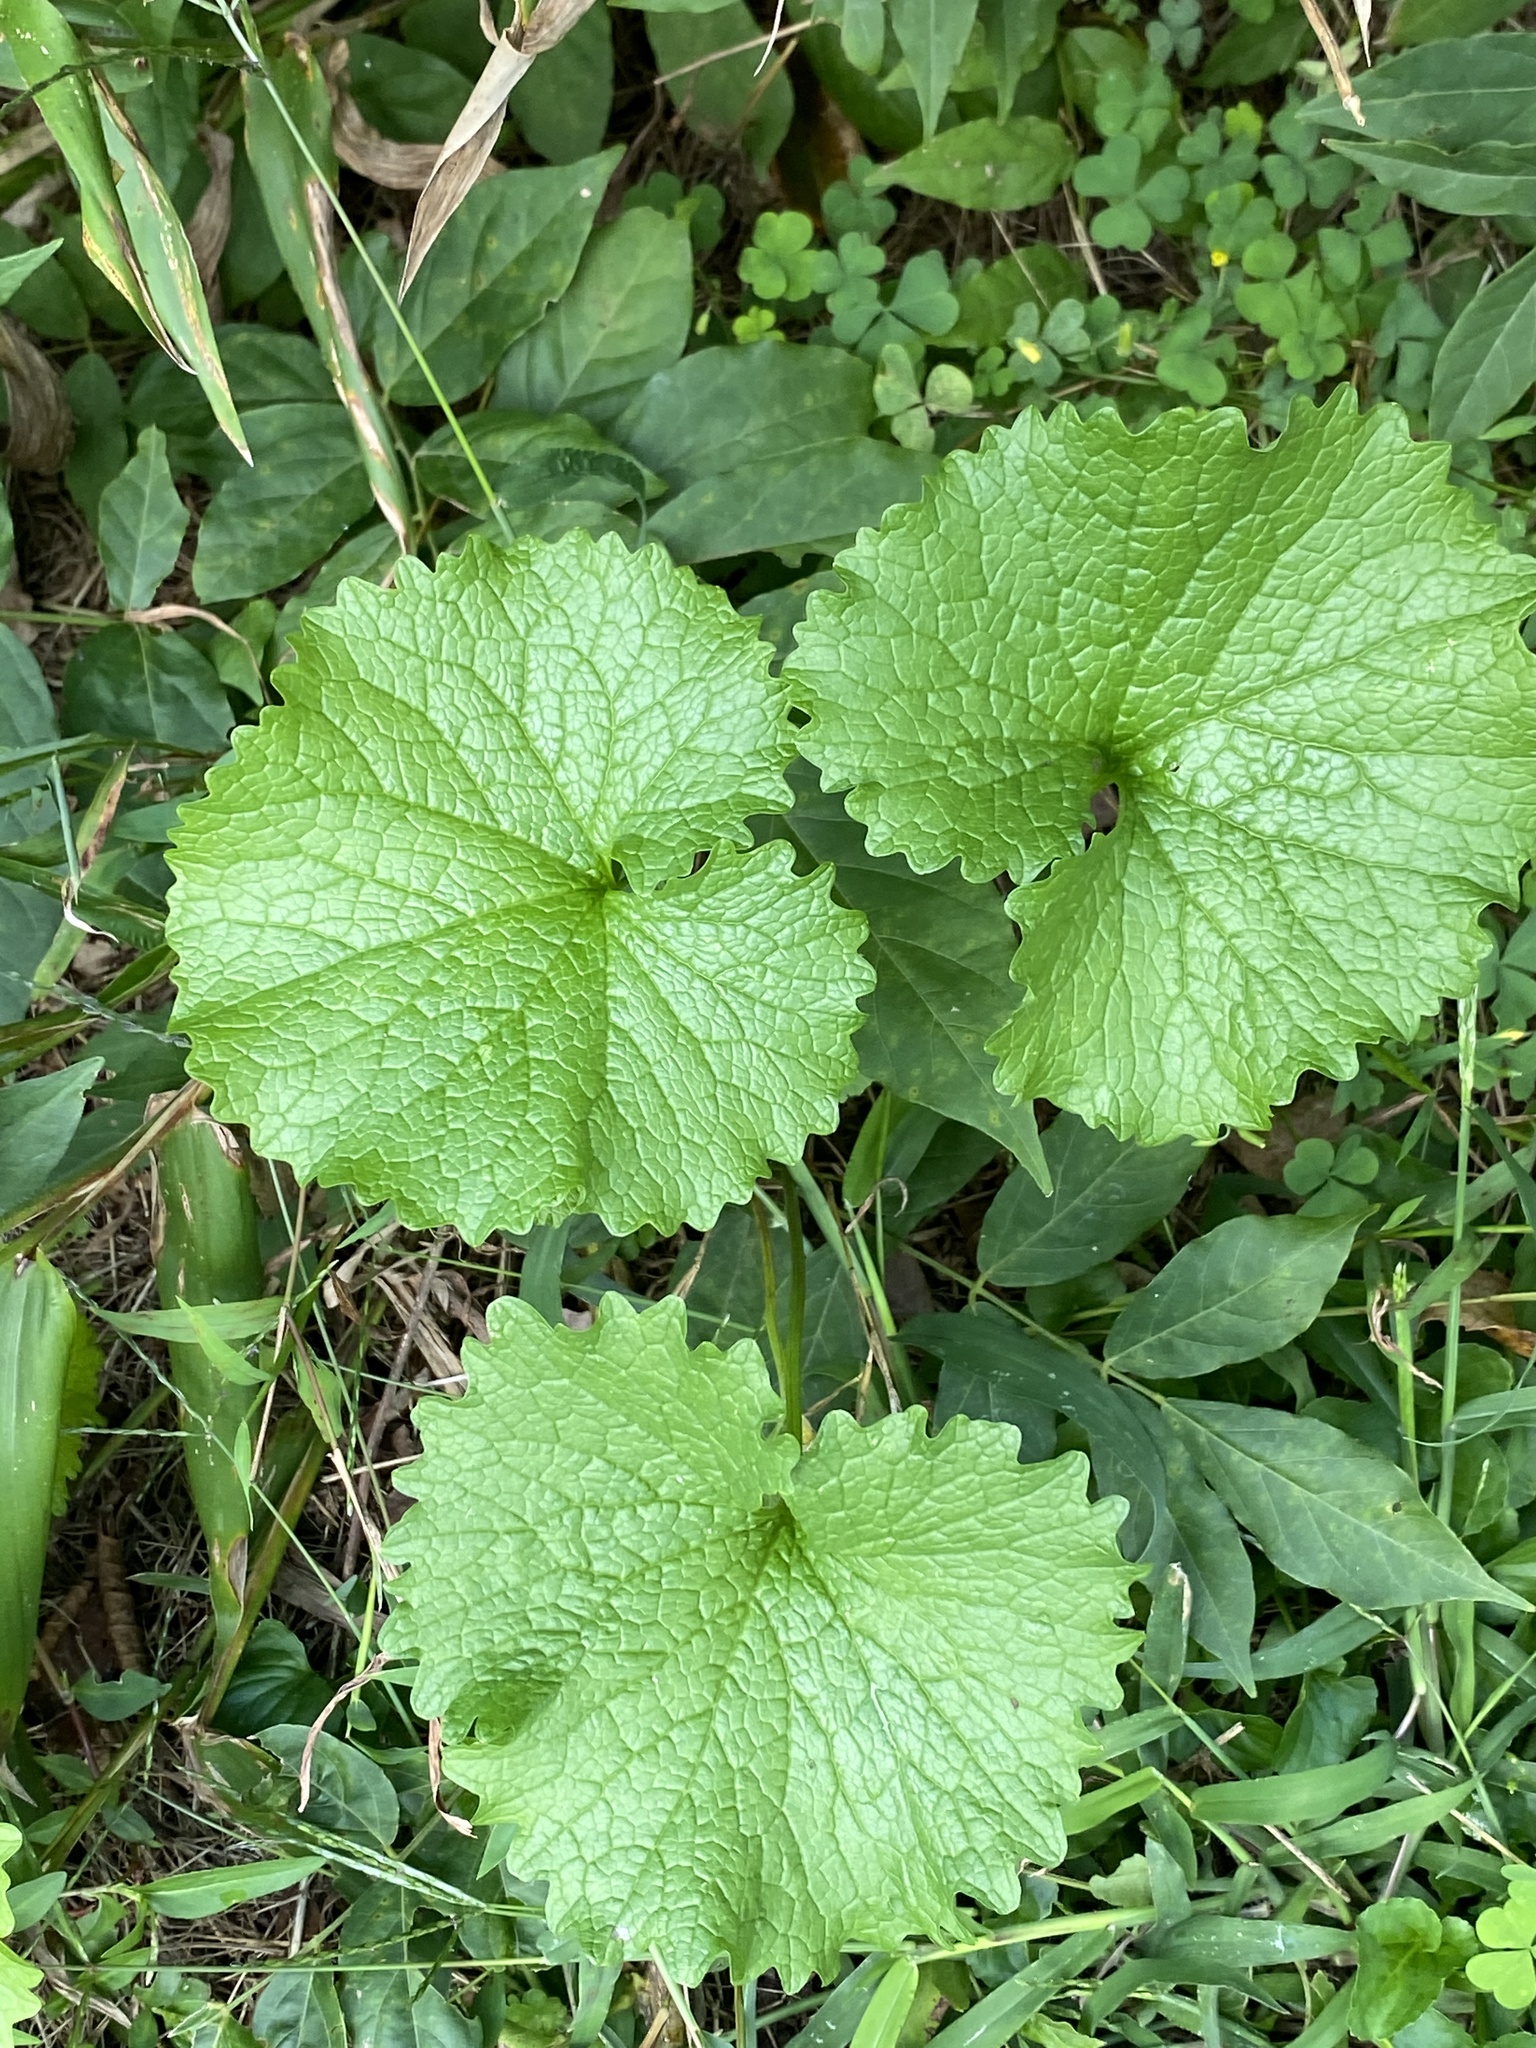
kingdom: Plantae
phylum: Tracheophyta
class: Magnoliopsida
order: Brassicales
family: Brassicaceae
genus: Alliaria
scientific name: Alliaria petiolata
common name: Garlic mustard
